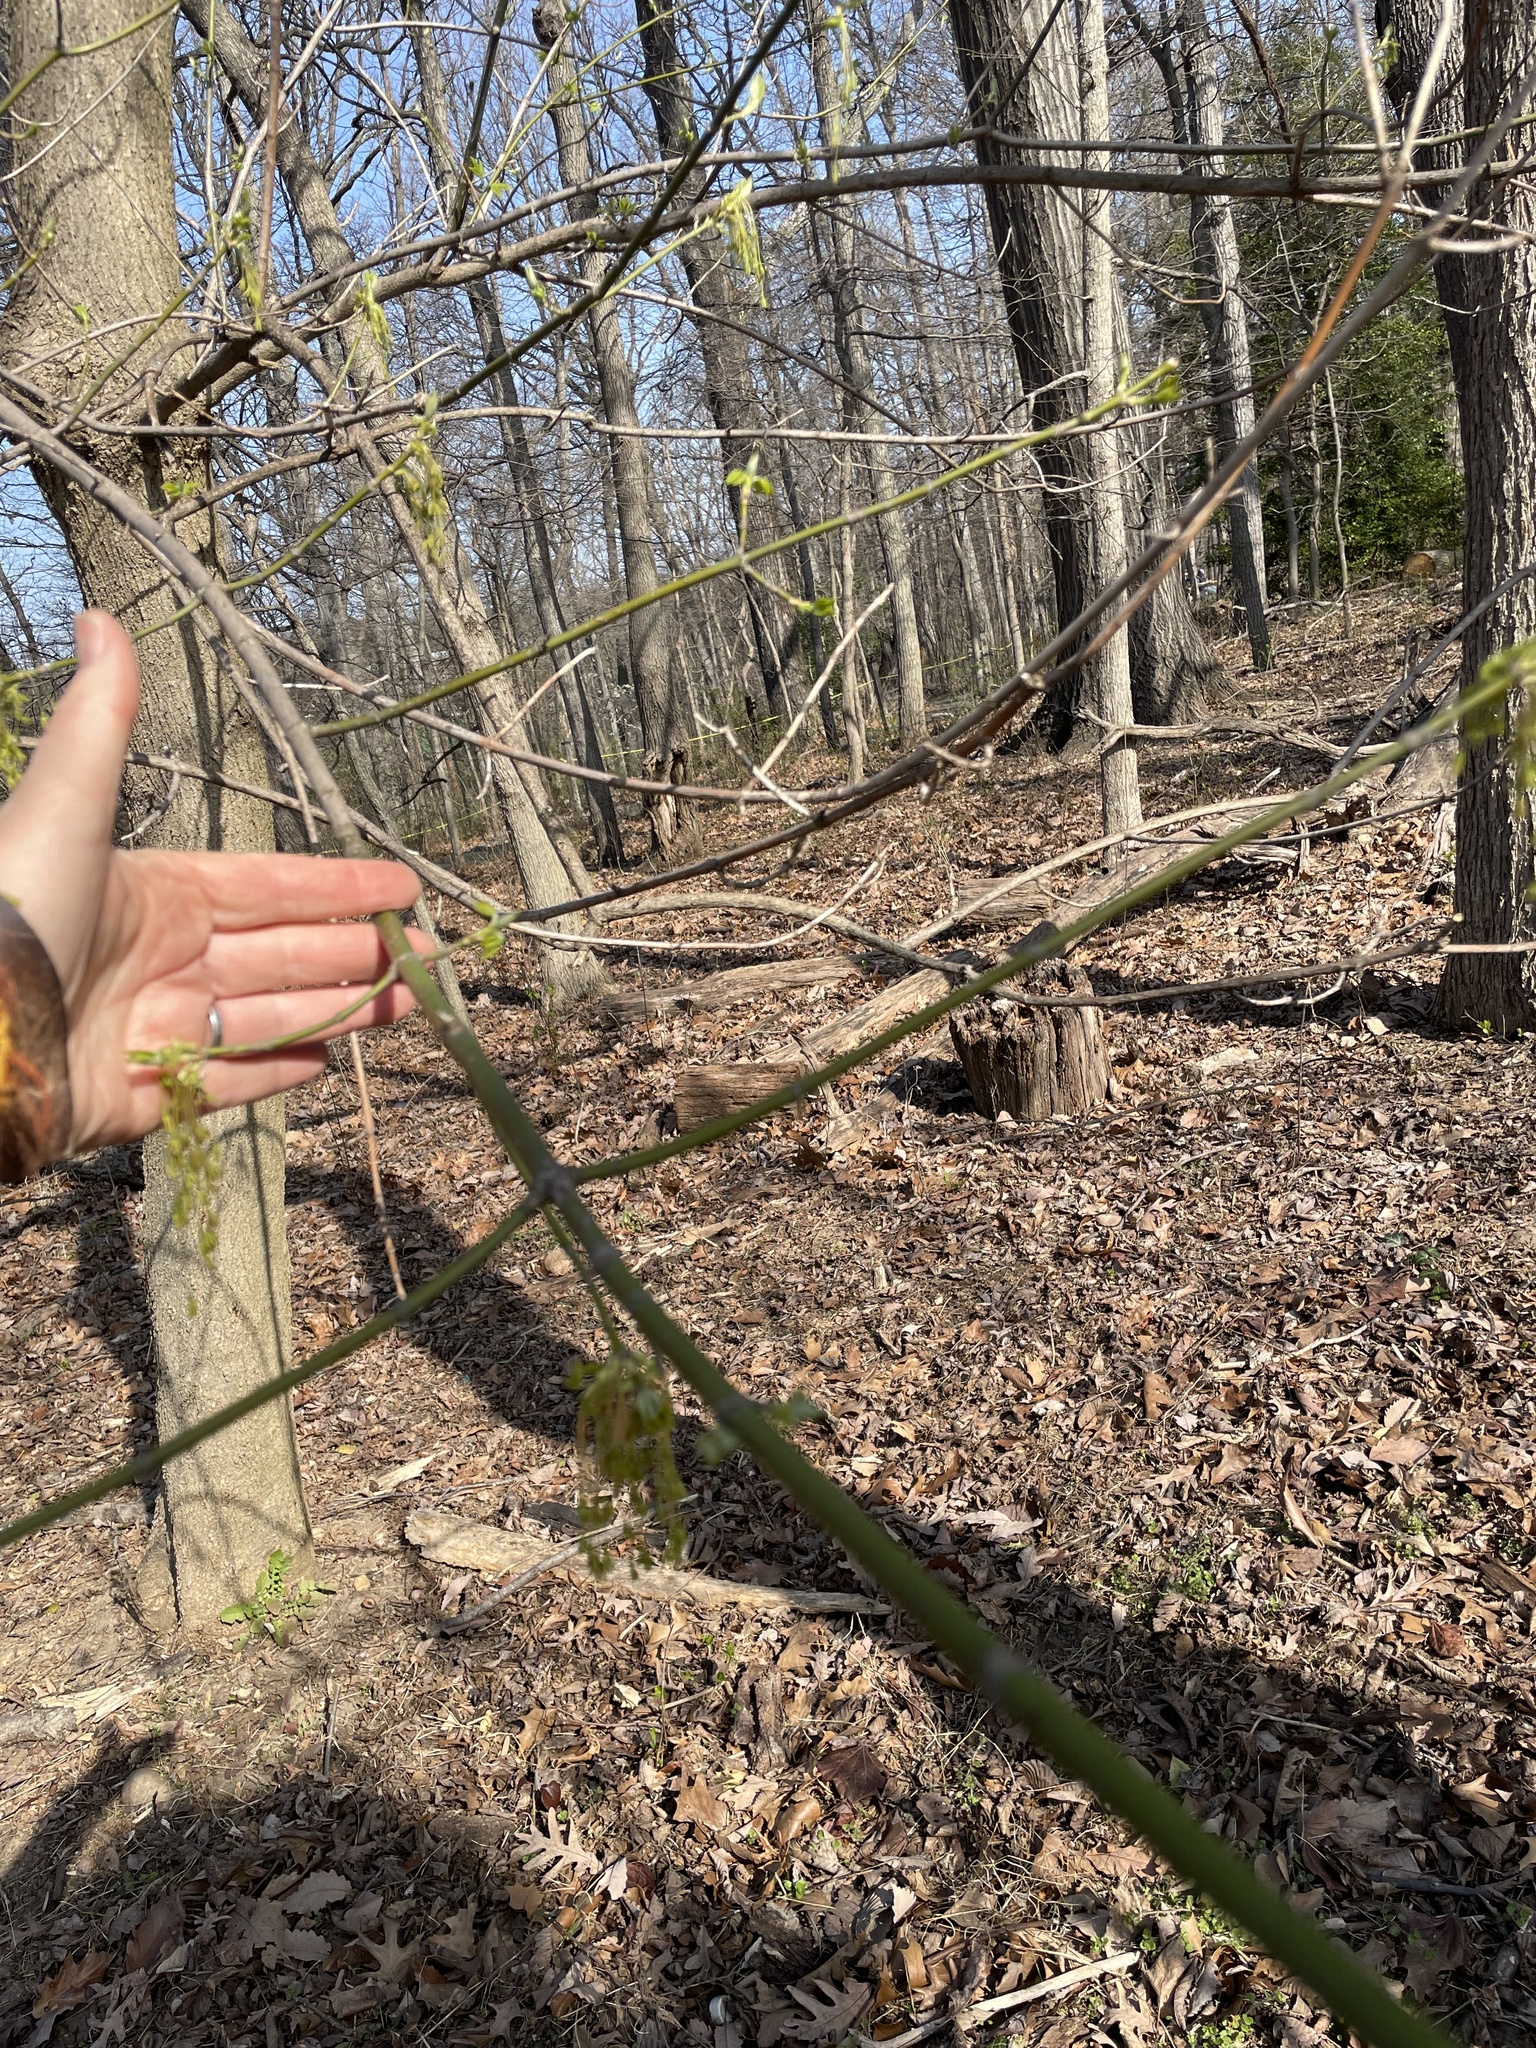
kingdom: Plantae
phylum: Tracheophyta
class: Magnoliopsida
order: Sapindales
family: Sapindaceae
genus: Acer
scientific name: Acer negundo
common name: Ashleaf maple
